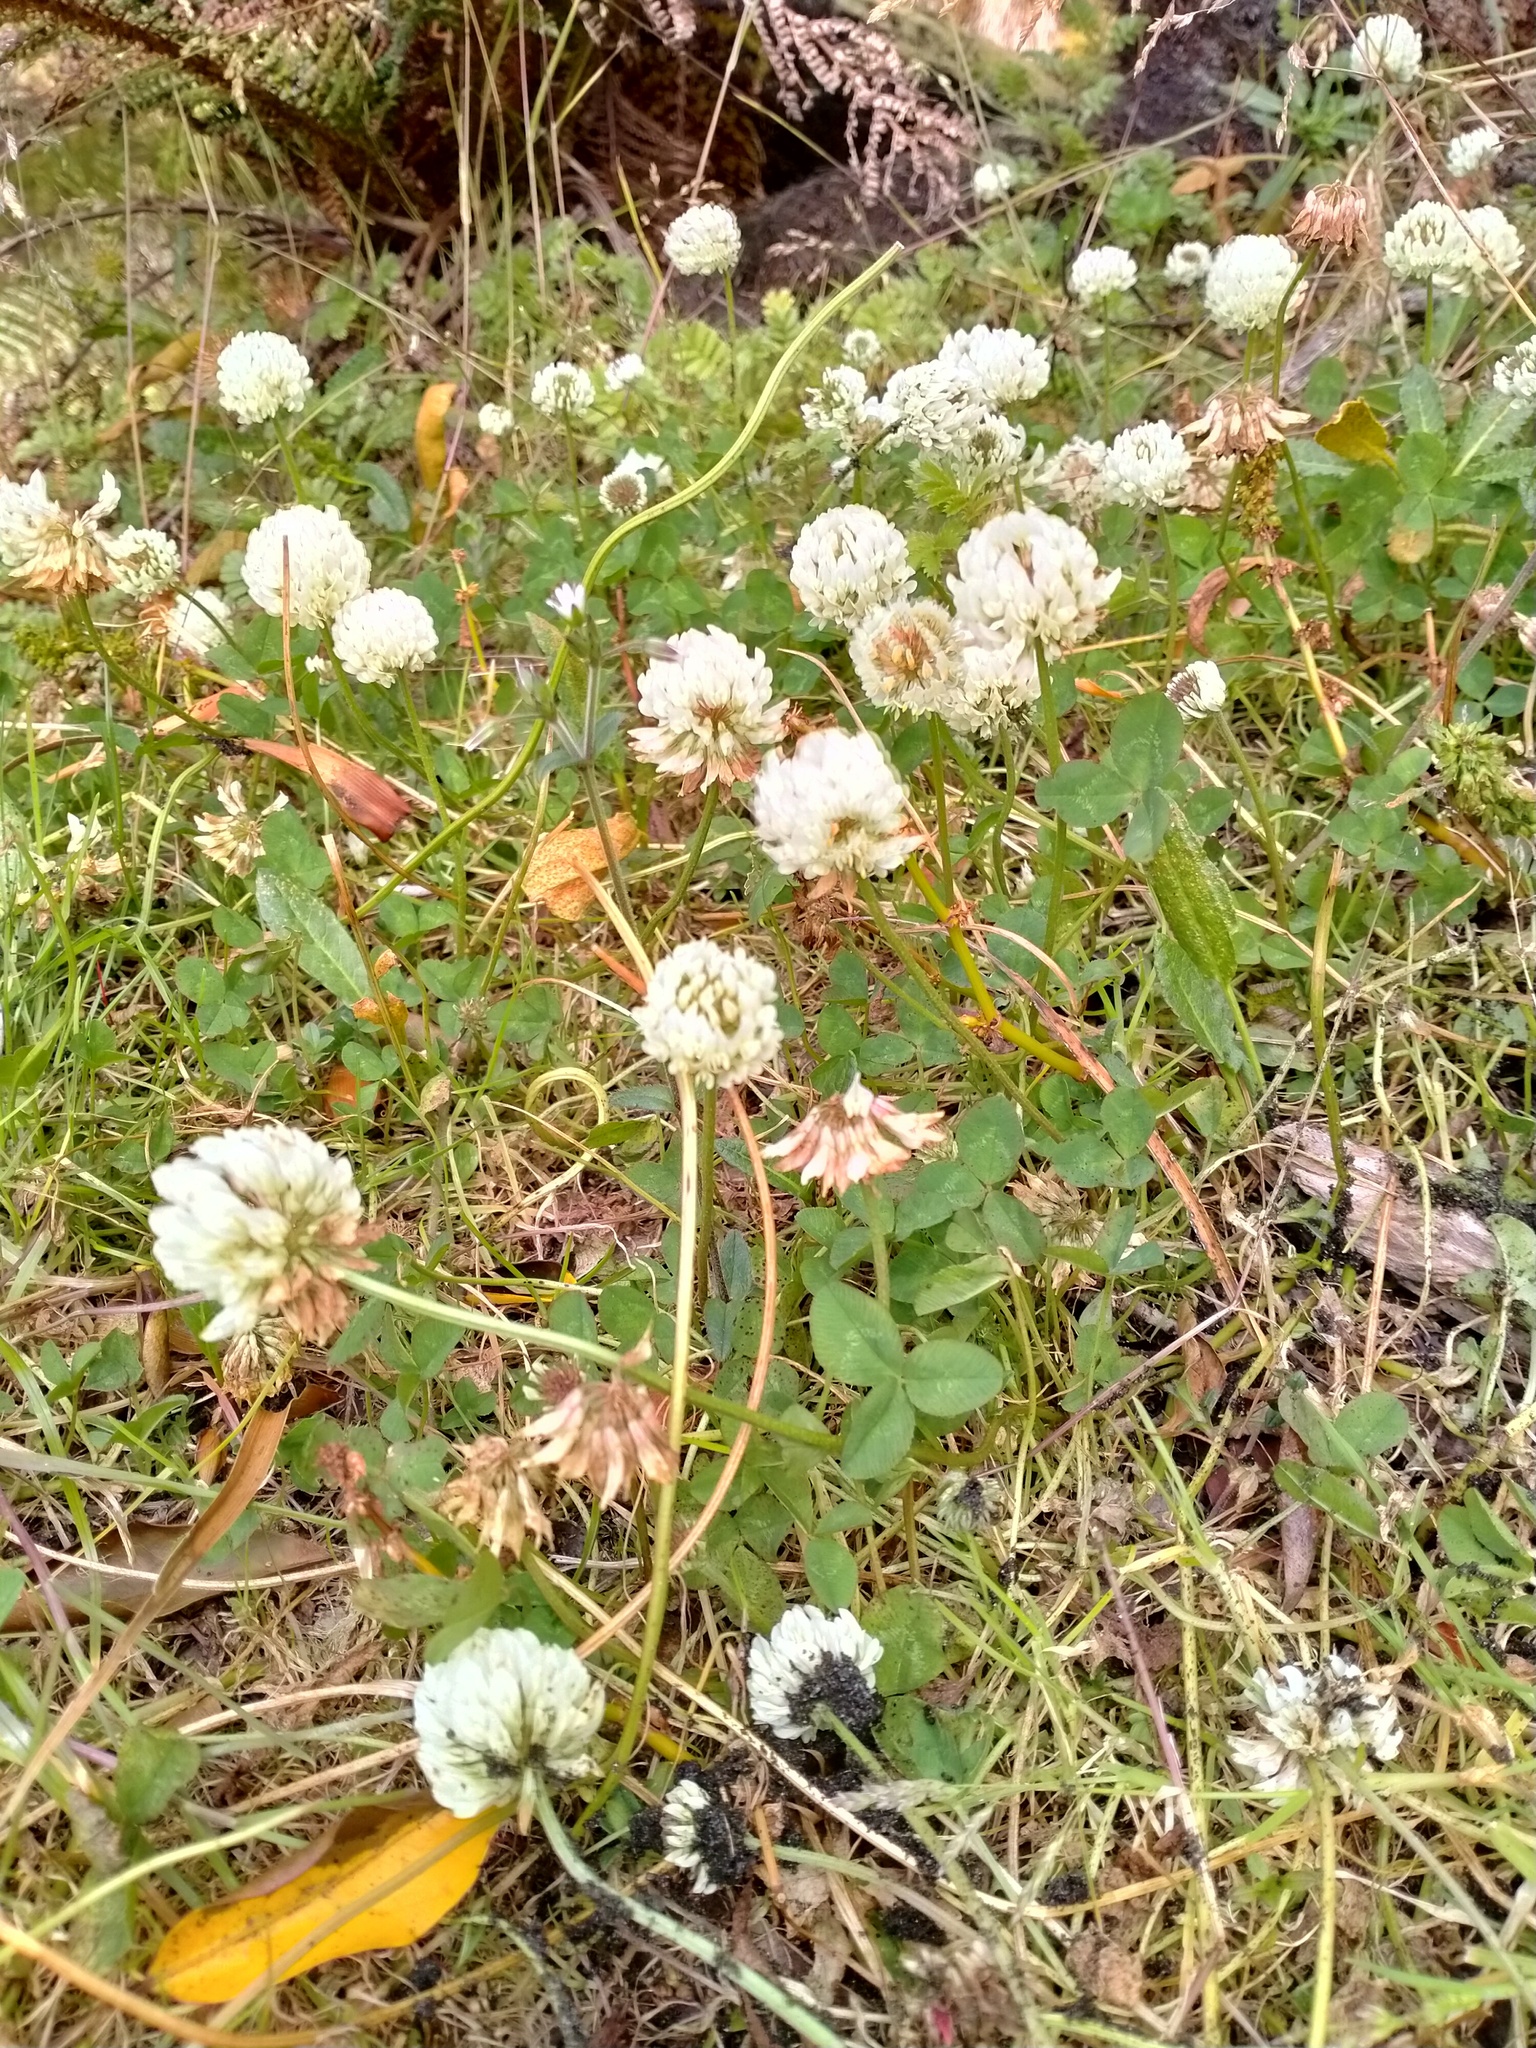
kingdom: Plantae
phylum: Tracheophyta
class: Magnoliopsida
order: Fabales
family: Fabaceae
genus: Trifolium
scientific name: Trifolium repens
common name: White clover
